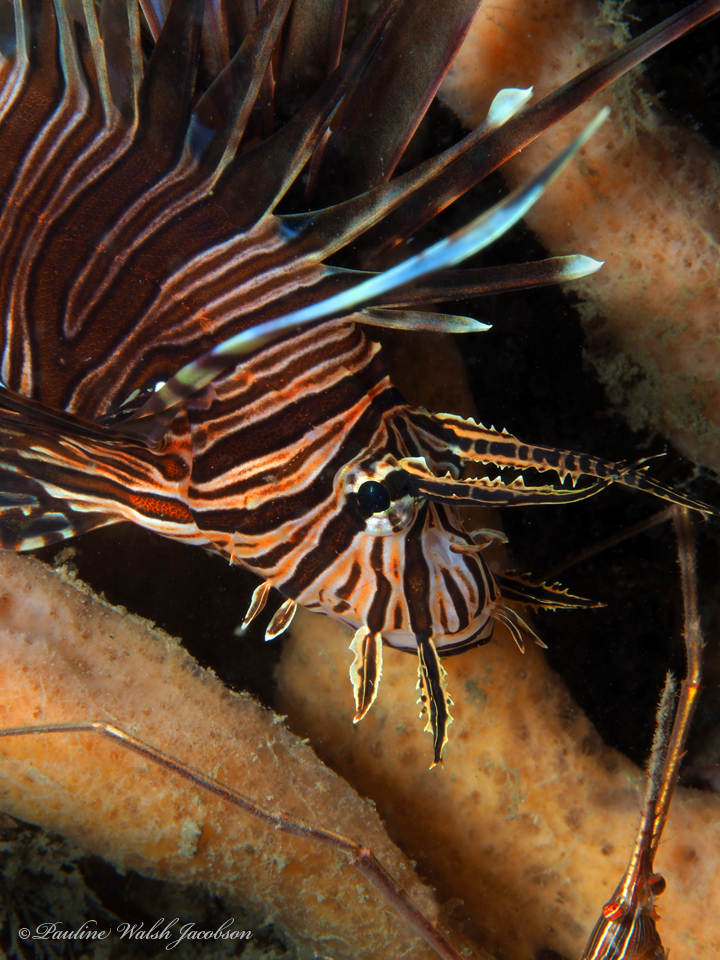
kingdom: Animalia
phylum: Chordata
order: Scorpaeniformes
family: Scorpaenidae
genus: Pterois
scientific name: Pterois volitans
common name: Lionfish
